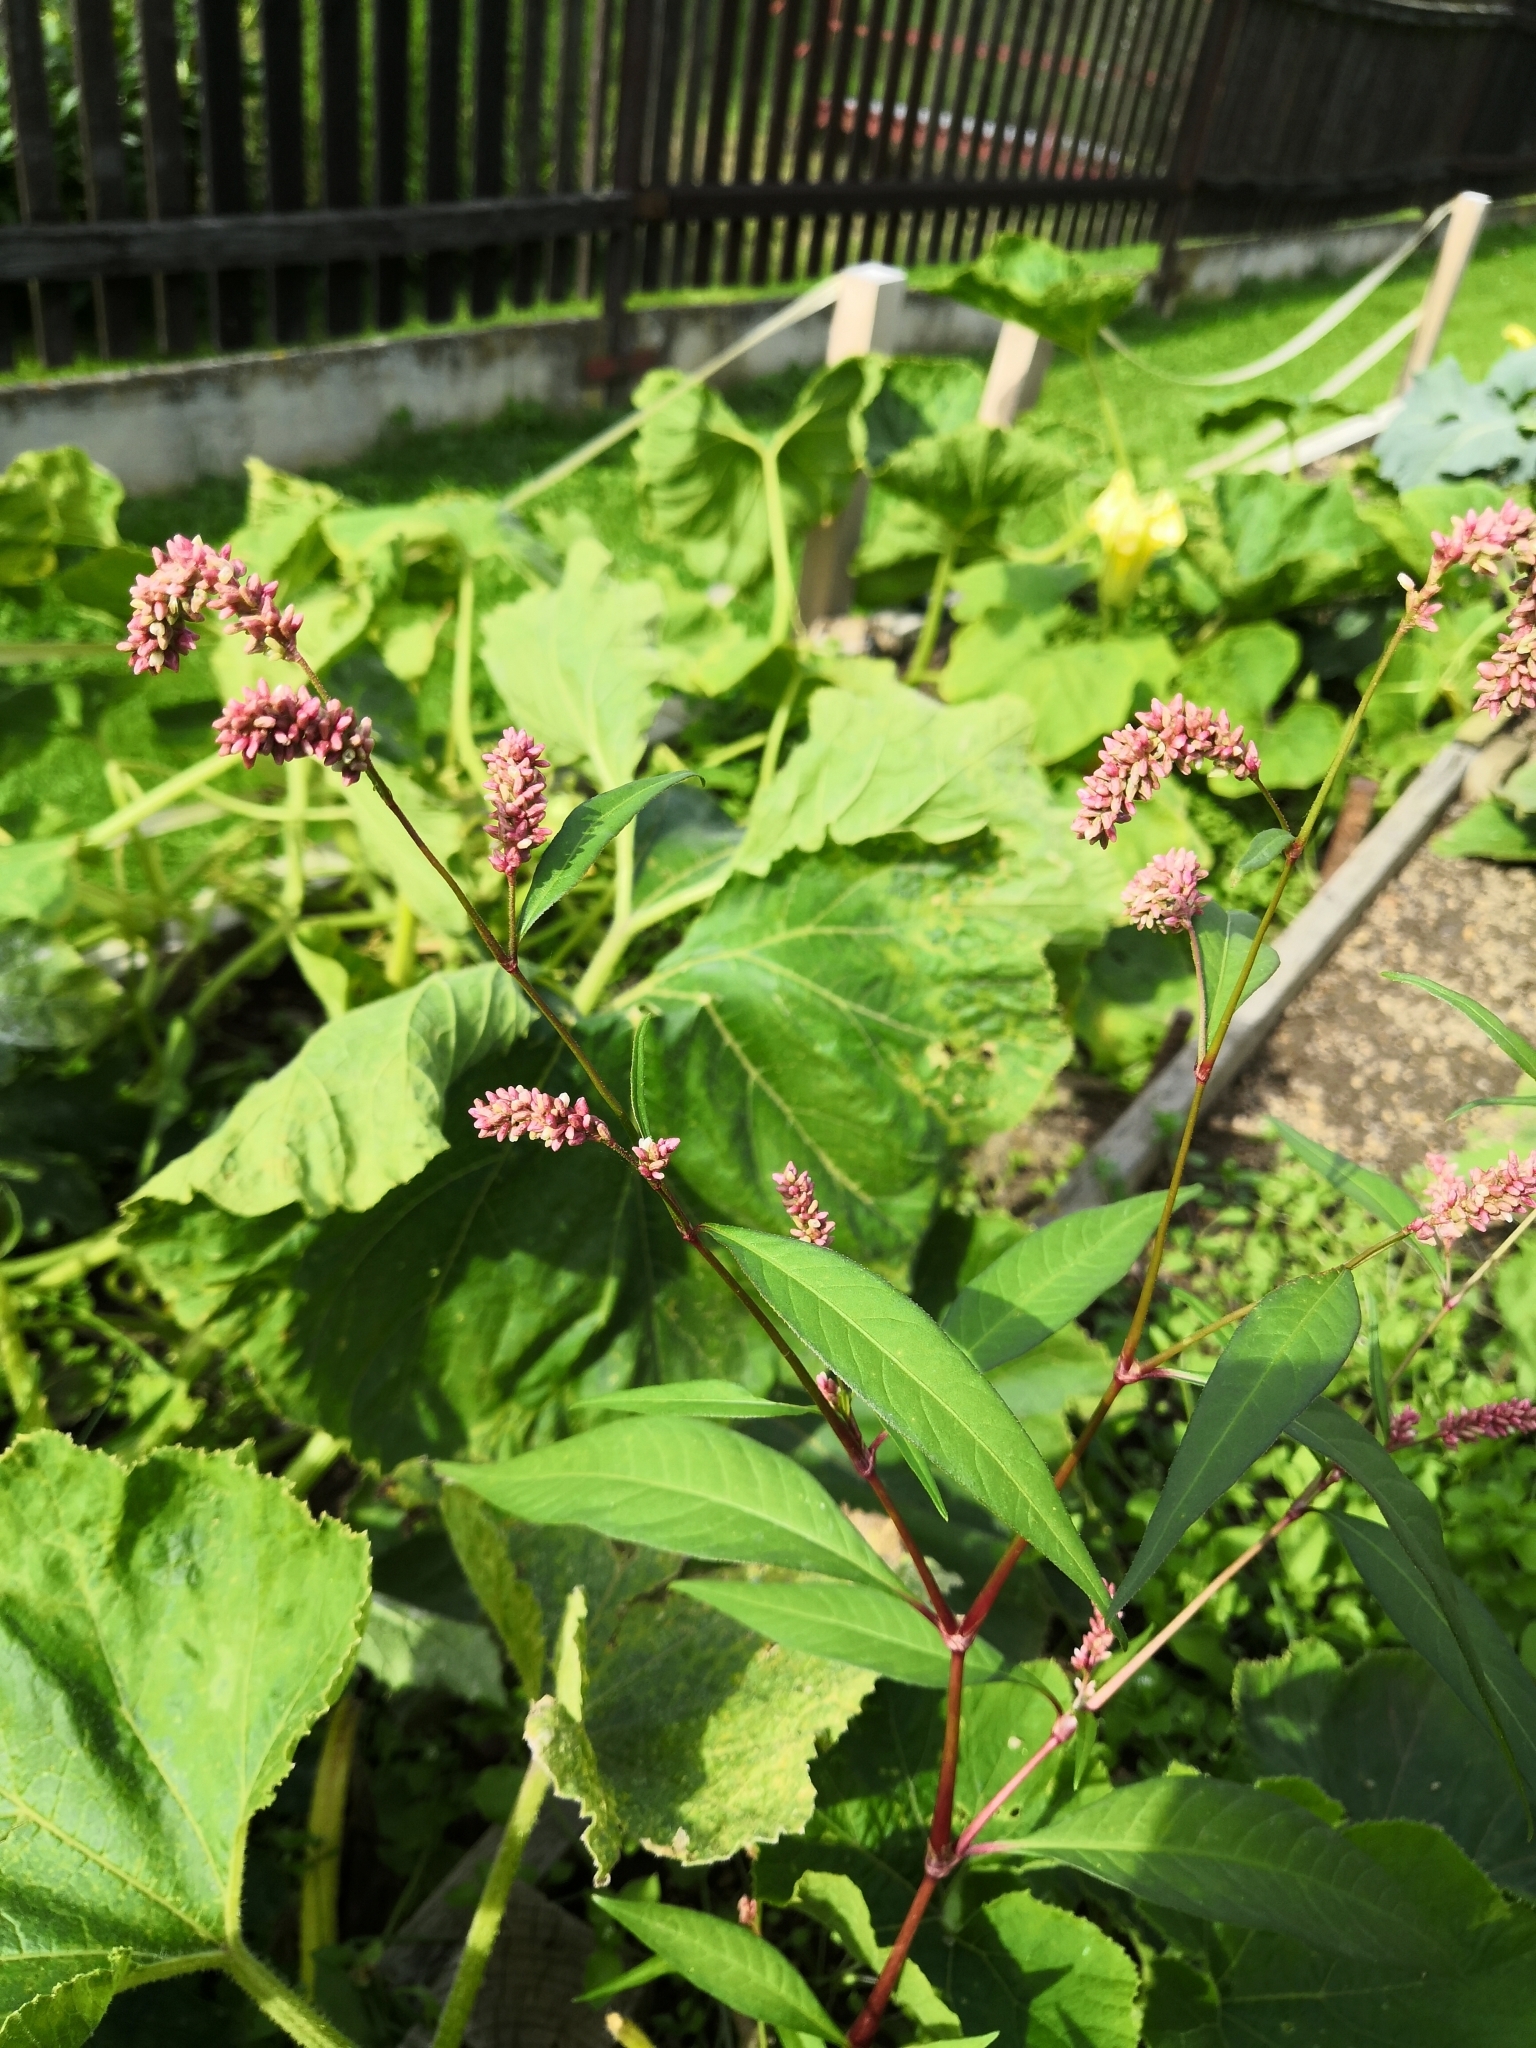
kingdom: Plantae
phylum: Tracheophyta
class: Magnoliopsida
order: Caryophyllales
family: Polygonaceae
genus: Persicaria
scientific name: Persicaria lapathifolia
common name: Curlytop knotweed
